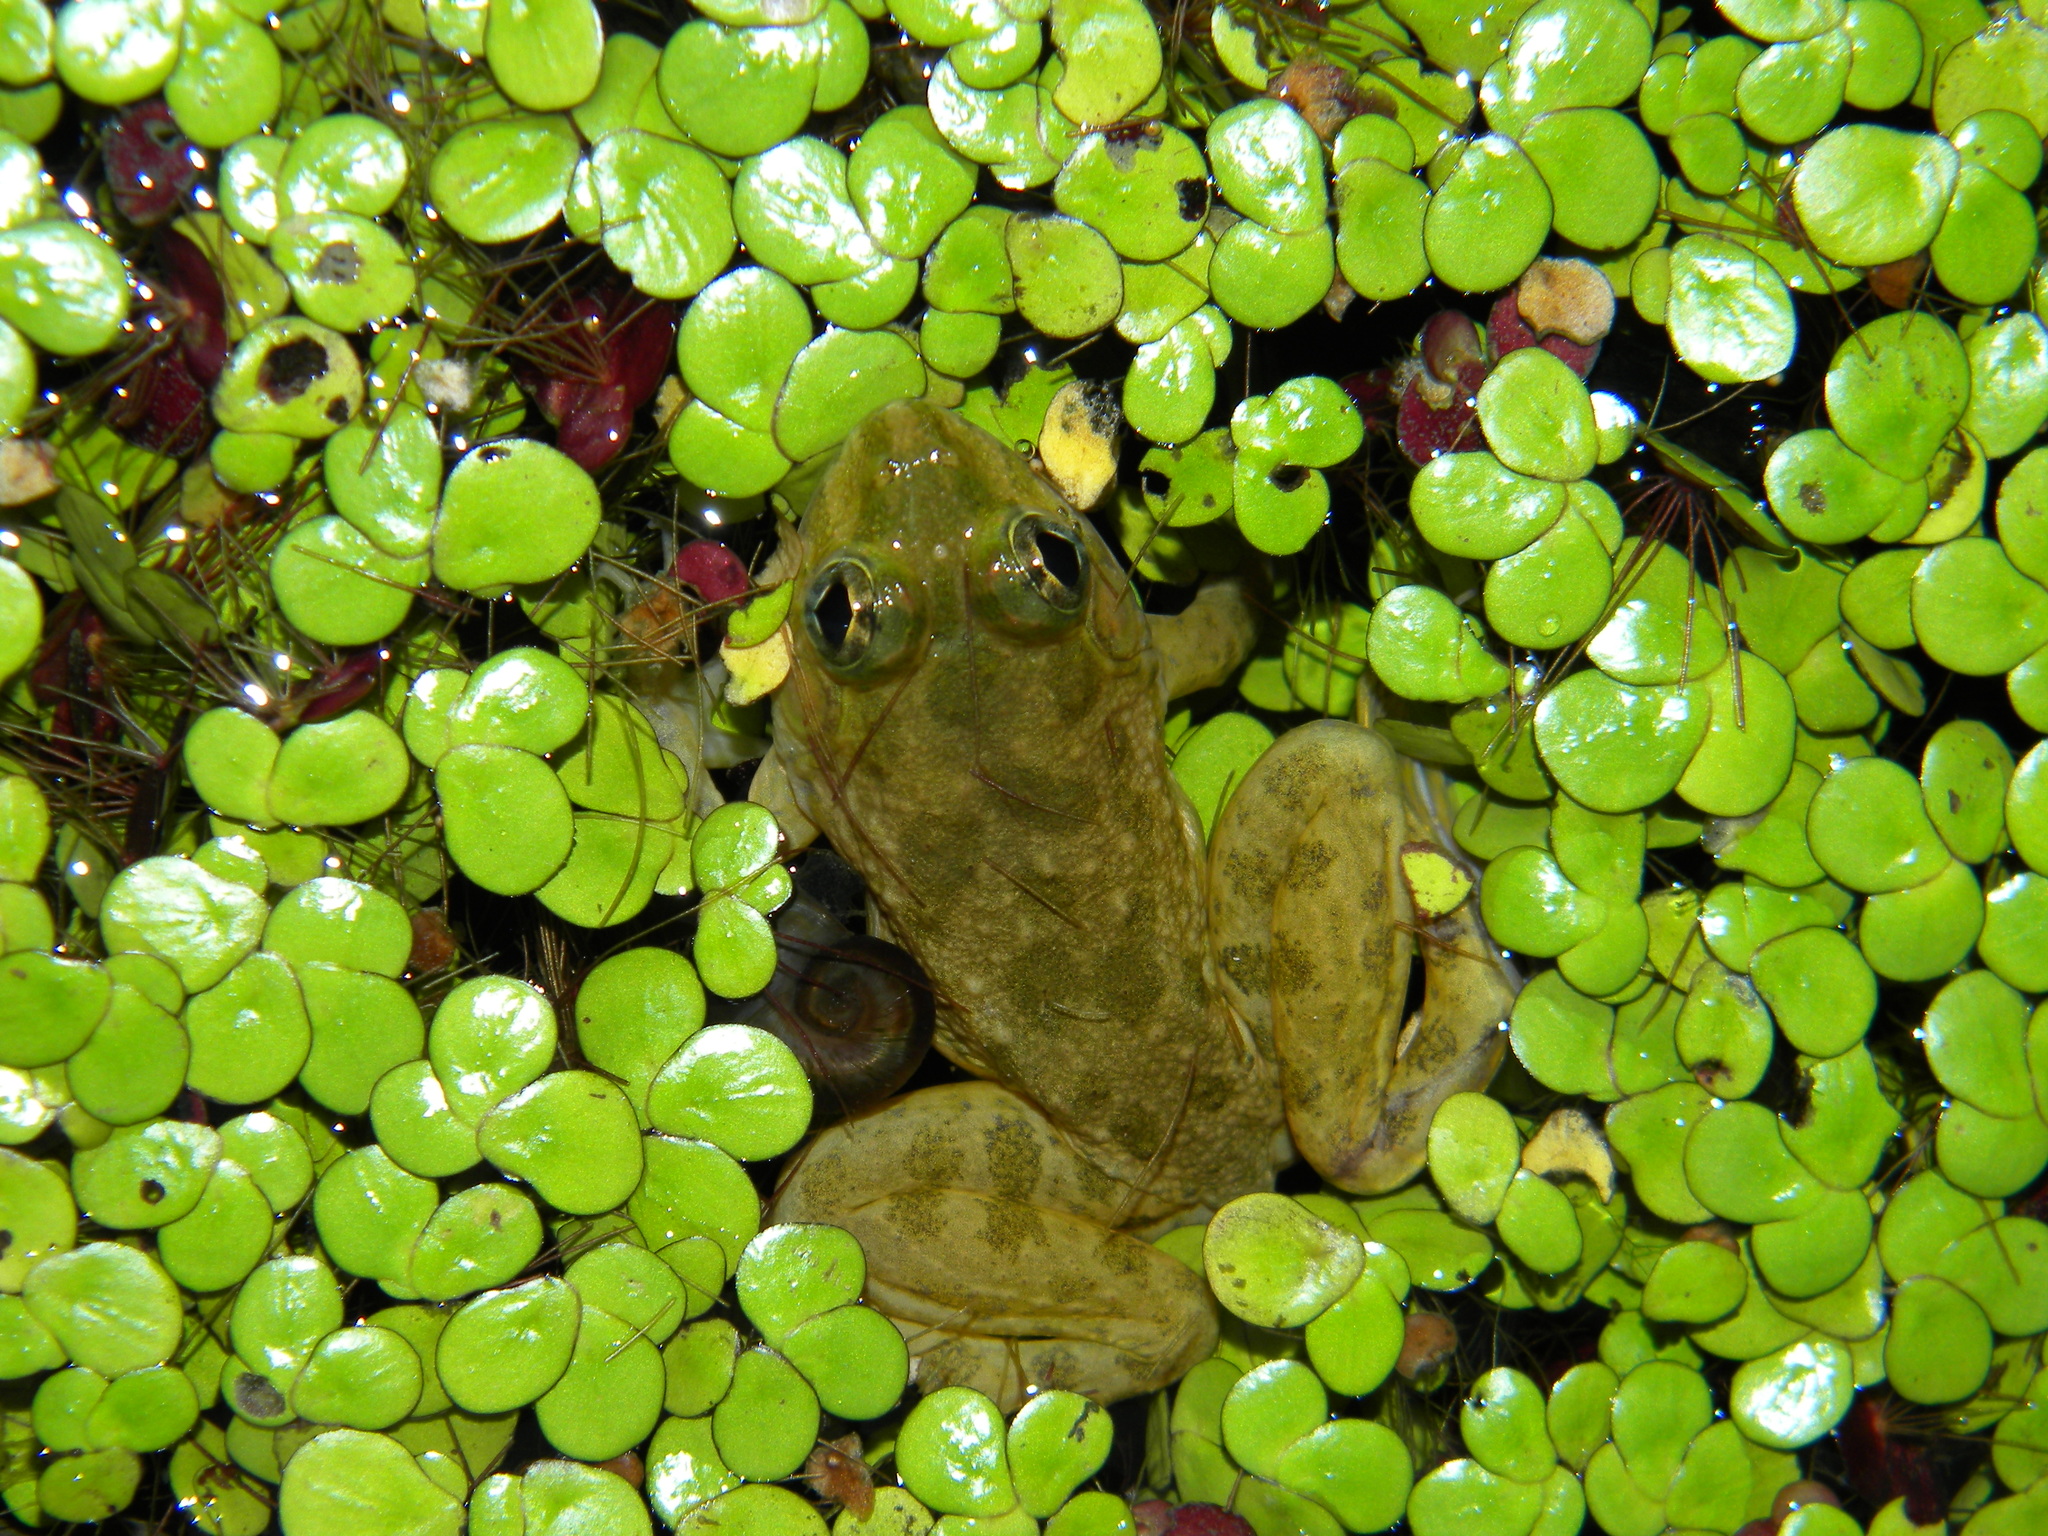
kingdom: Animalia
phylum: Chordata
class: Amphibia
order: Anura
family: Dicroglossidae
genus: Euphlyctis
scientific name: Euphlyctis cyanophlyctis
